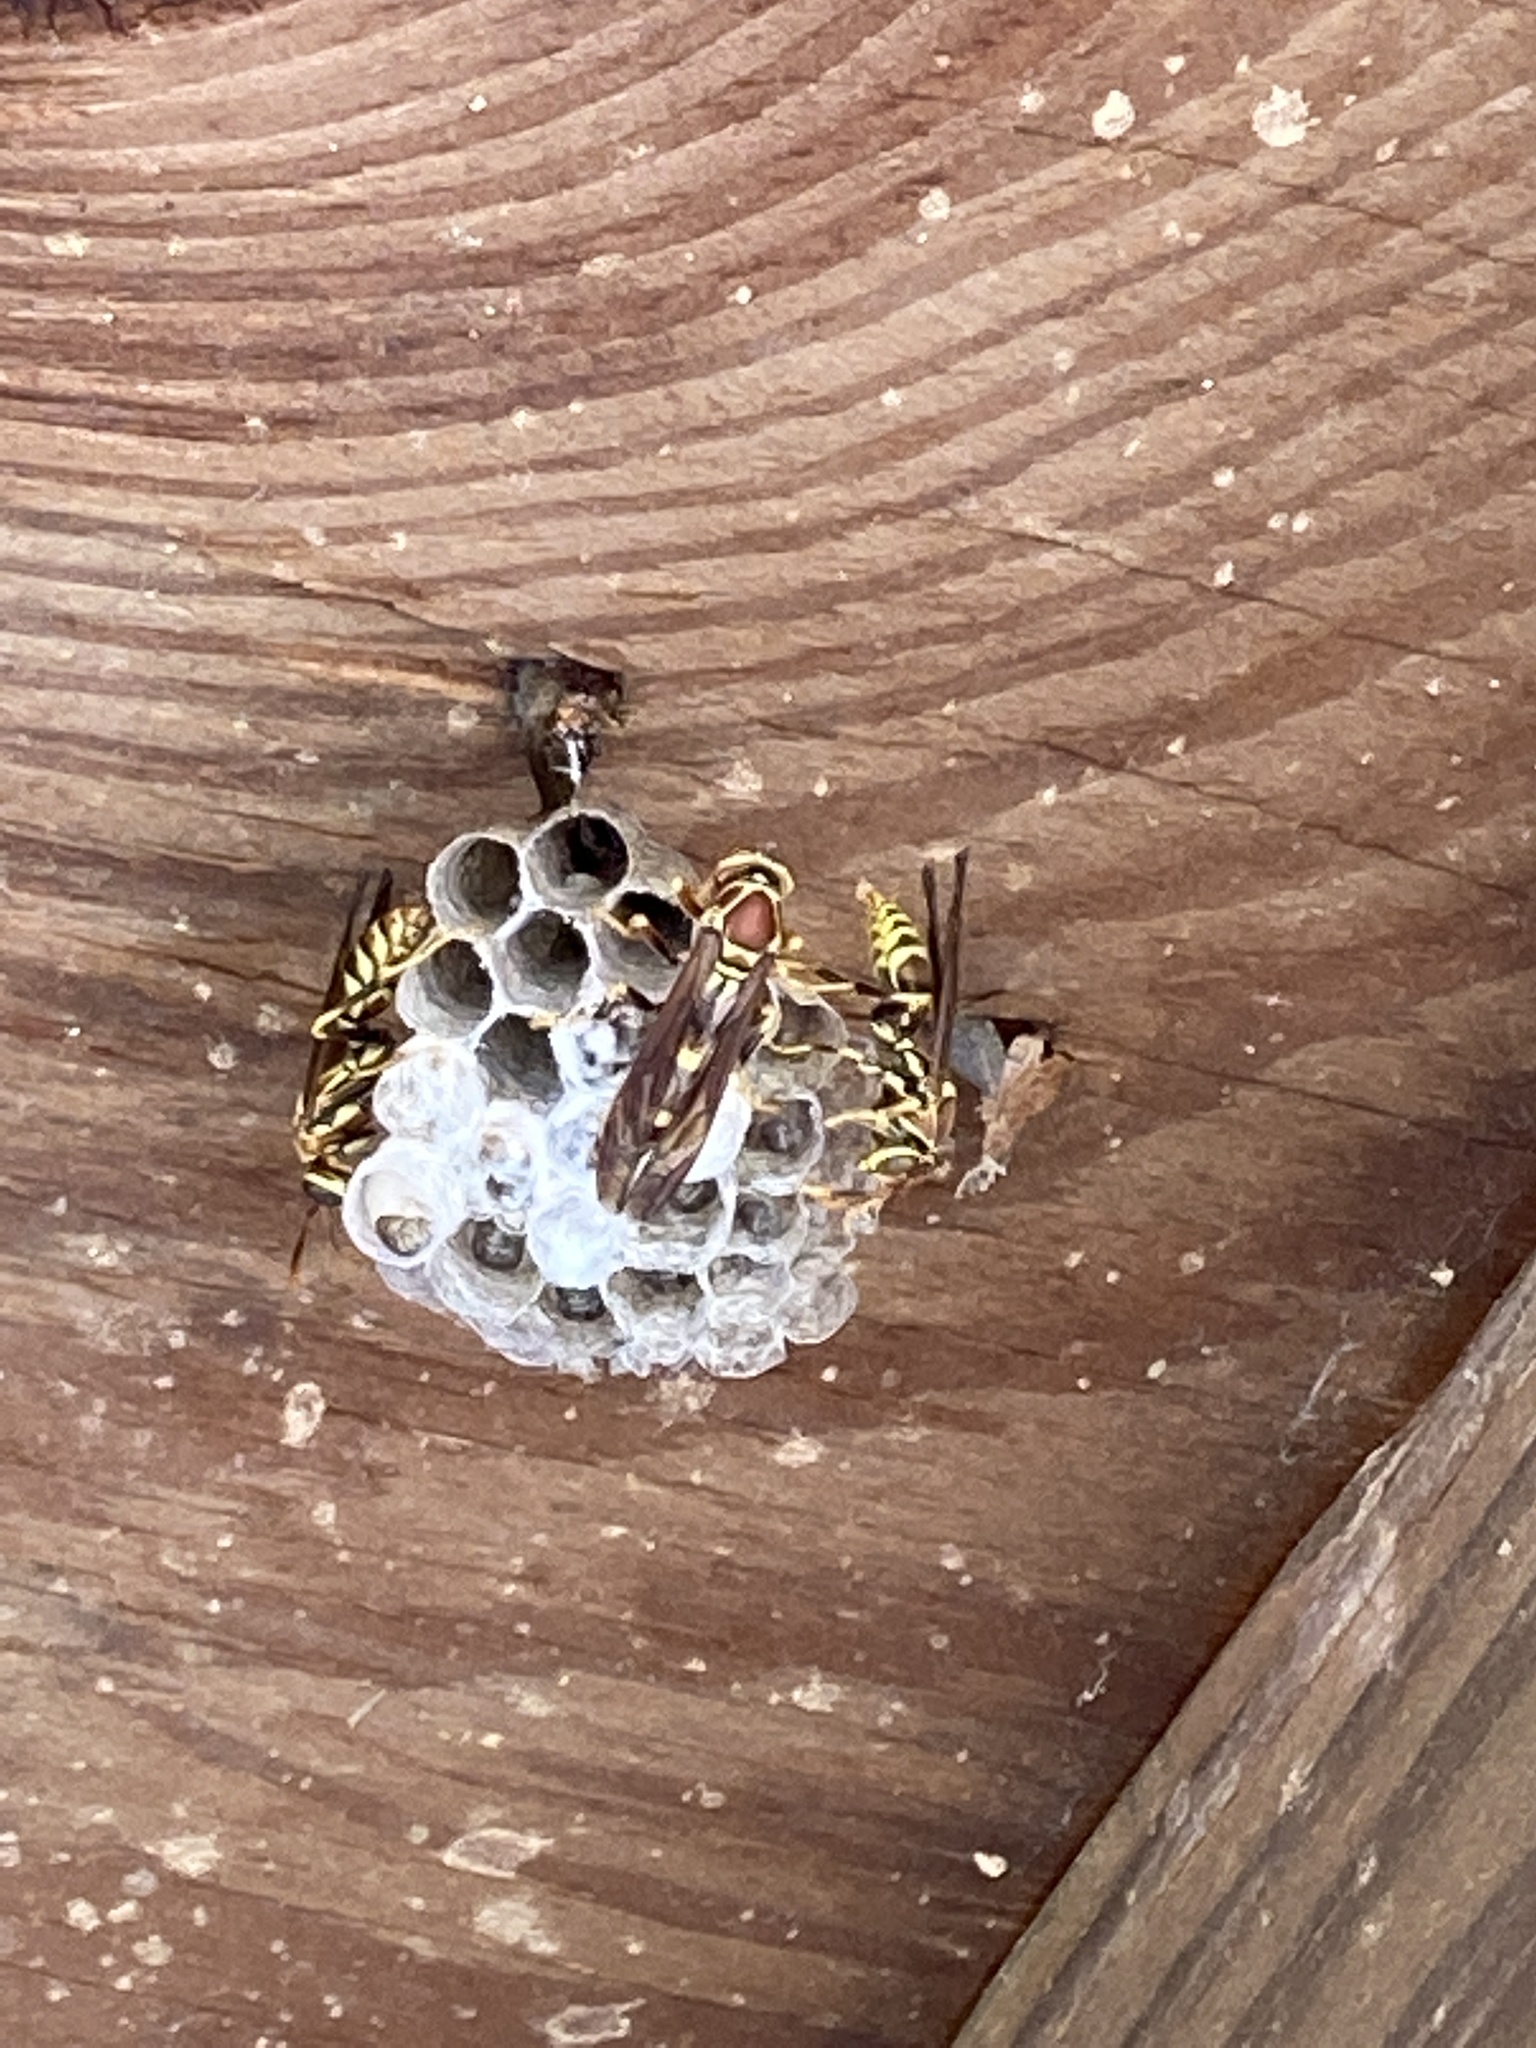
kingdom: Animalia
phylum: Arthropoda
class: Insecta
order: Hymenoptera
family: Eumenidae
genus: Polistes
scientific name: Polistes exclamans
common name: Paper wasp
